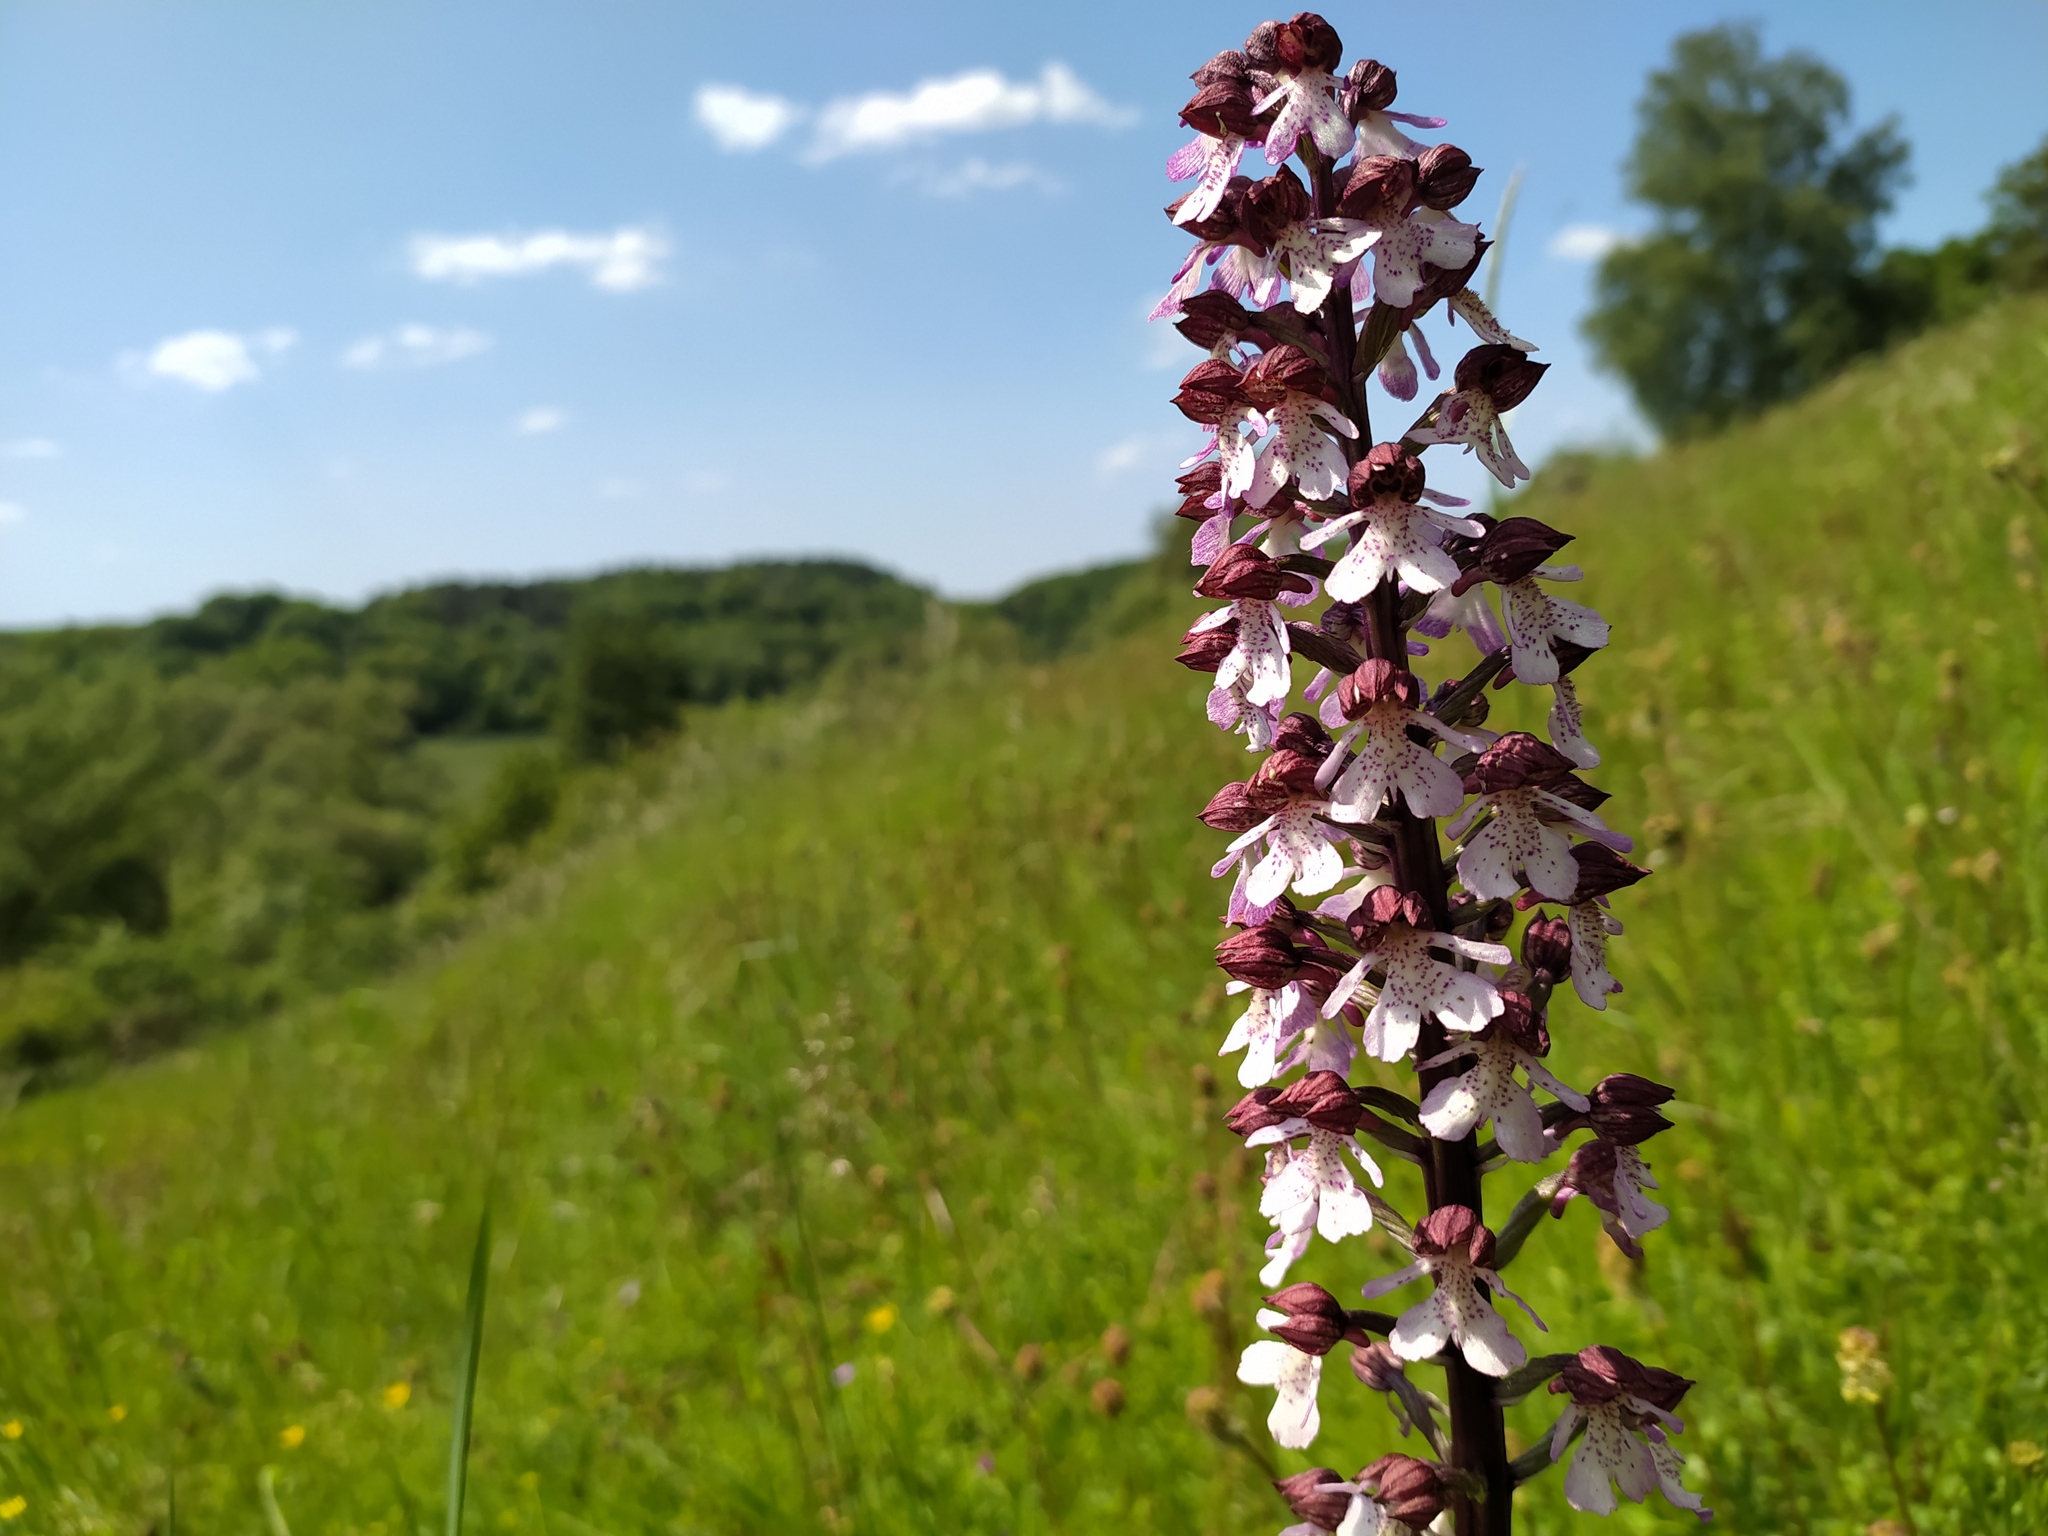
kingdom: Plantae
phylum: Tracheophyta
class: Liliopsida
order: Asparagales
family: Orchidaceae
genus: Orchis
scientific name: Orchis purpurea
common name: Lady orchid
